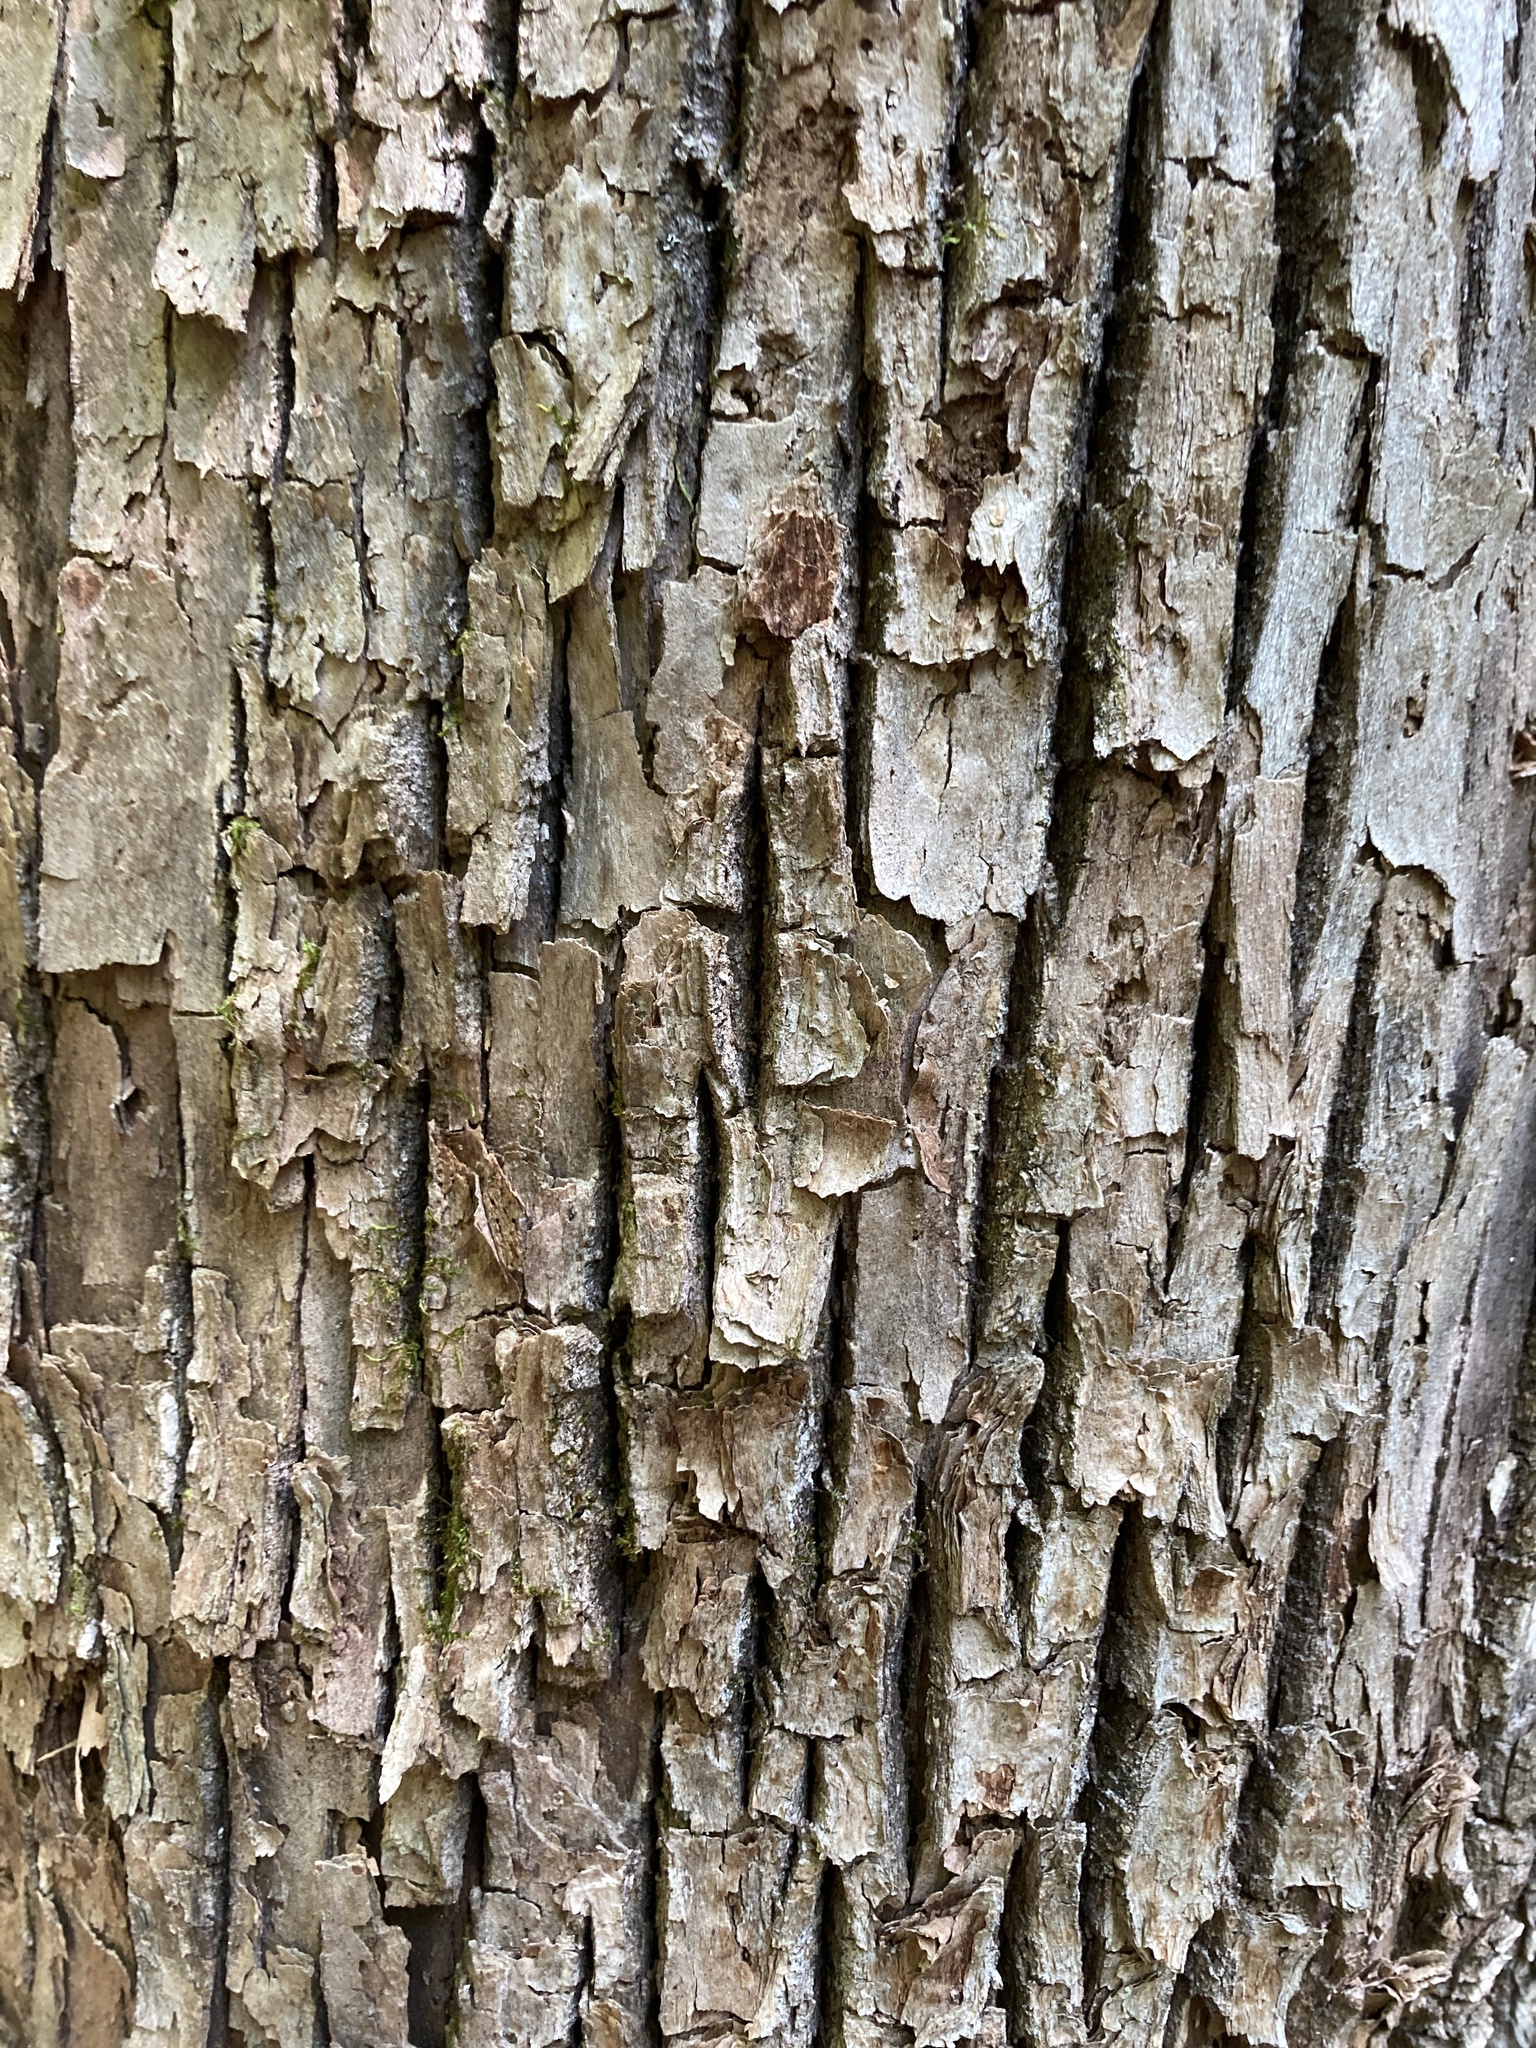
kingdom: Plantae
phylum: Tracheophyta
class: Magnoliopsida
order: Lamiales
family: Oleaceae
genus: Fraxinus
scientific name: Fraxinus americana
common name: White ash
